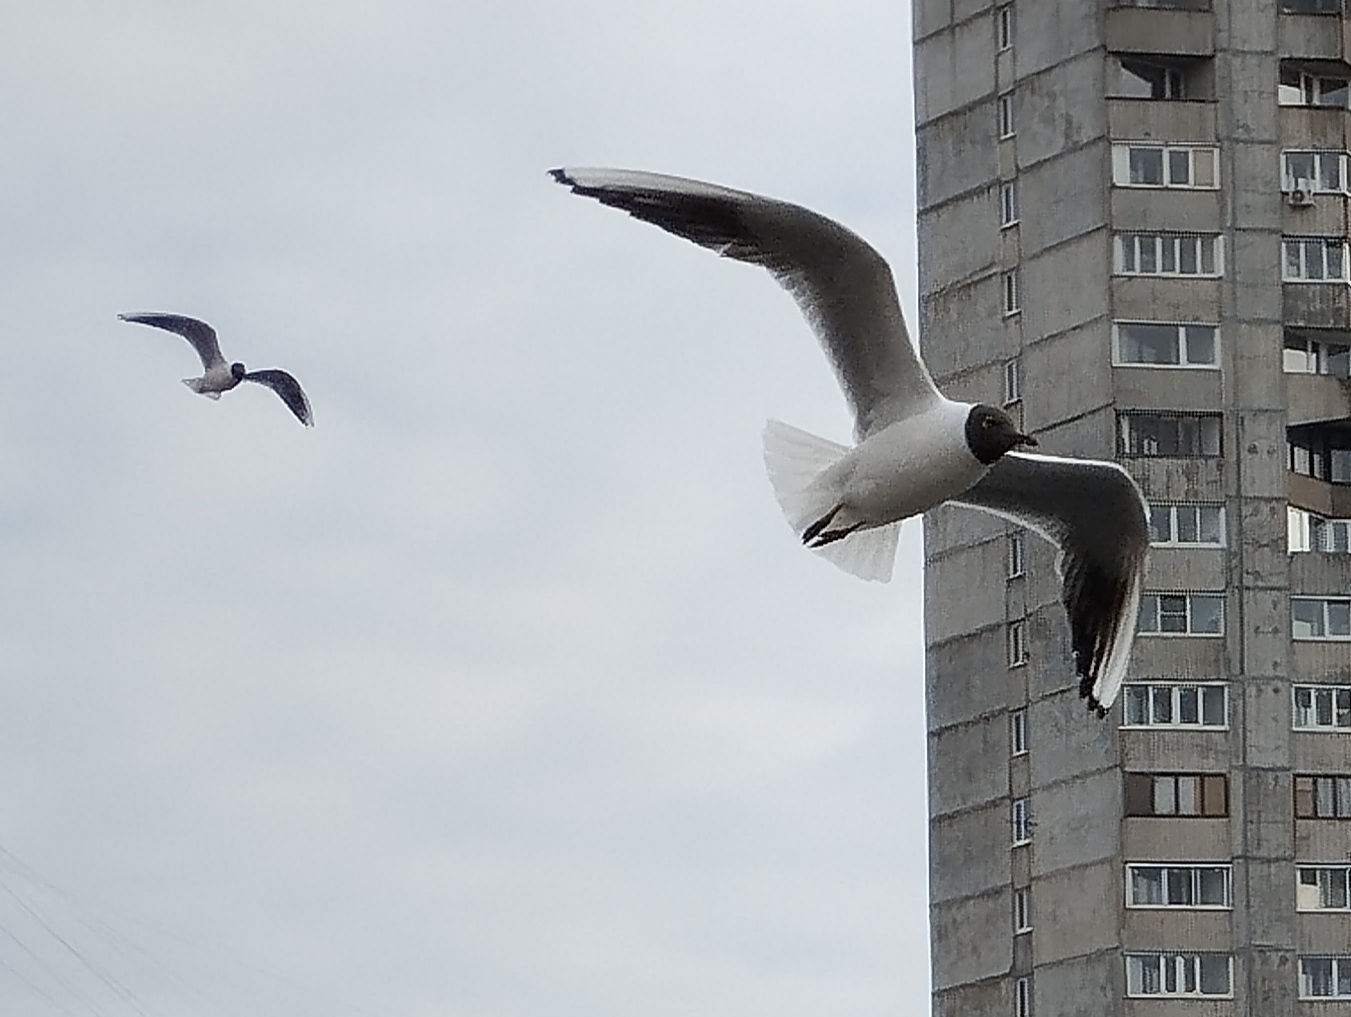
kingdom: Animalia
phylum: Chordata
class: Aves
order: Charadriiformes
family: Laridae
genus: Chroicocephalus
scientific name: Chroicocephalus ridibundus
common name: Black-headed gull
